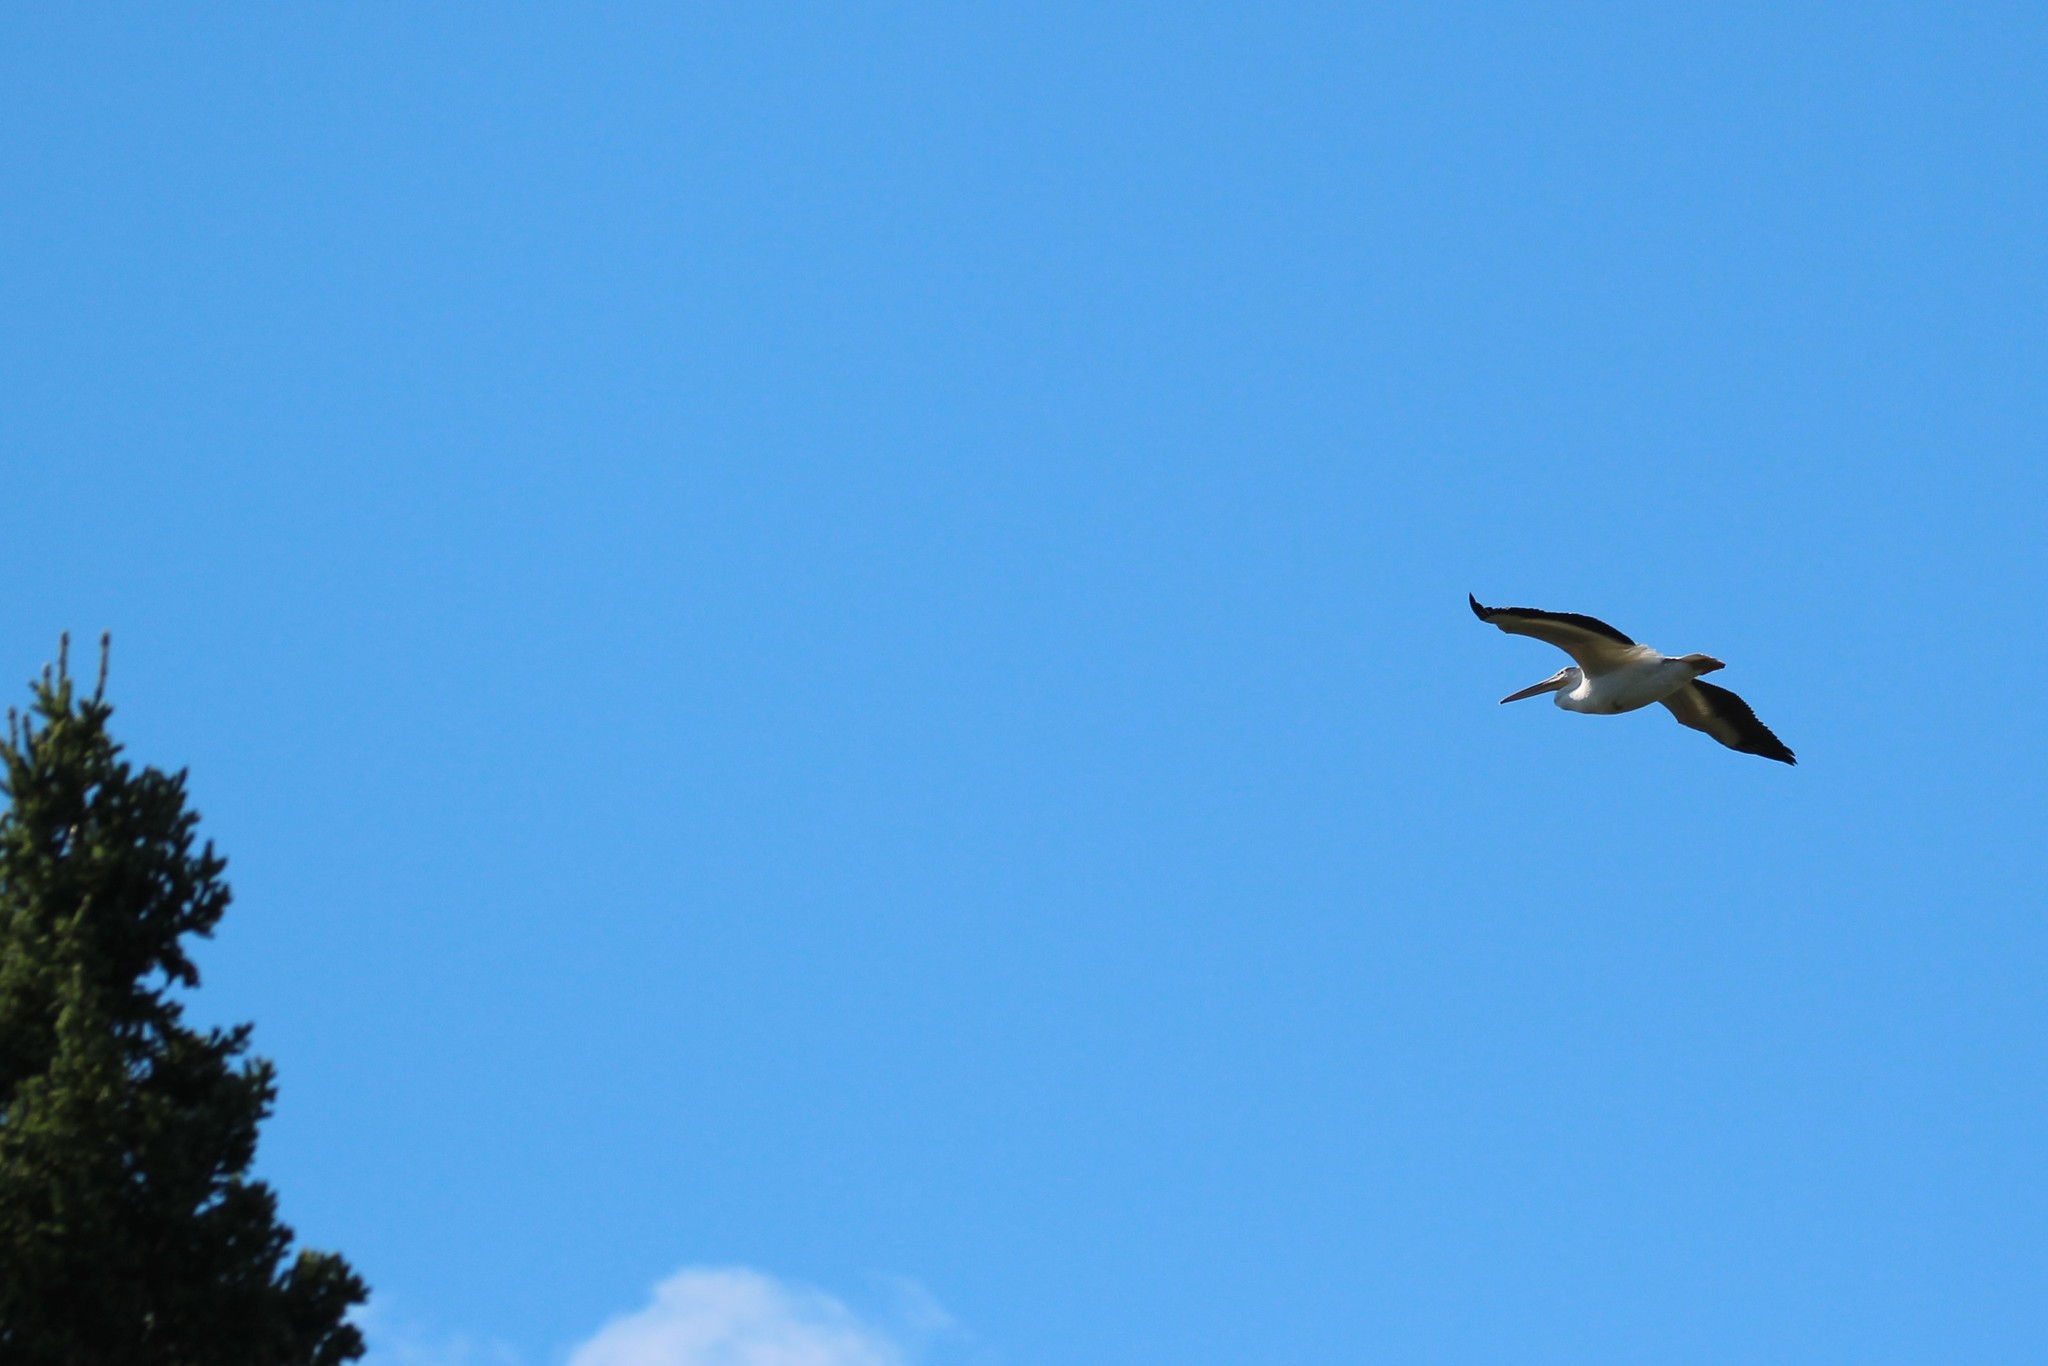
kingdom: Animalia
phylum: Chordata
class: Aves
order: Pelecaniformes
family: Pelecanidae
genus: Pelecanus
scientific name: Pelecanus erythrorhynchos
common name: American white pelican
